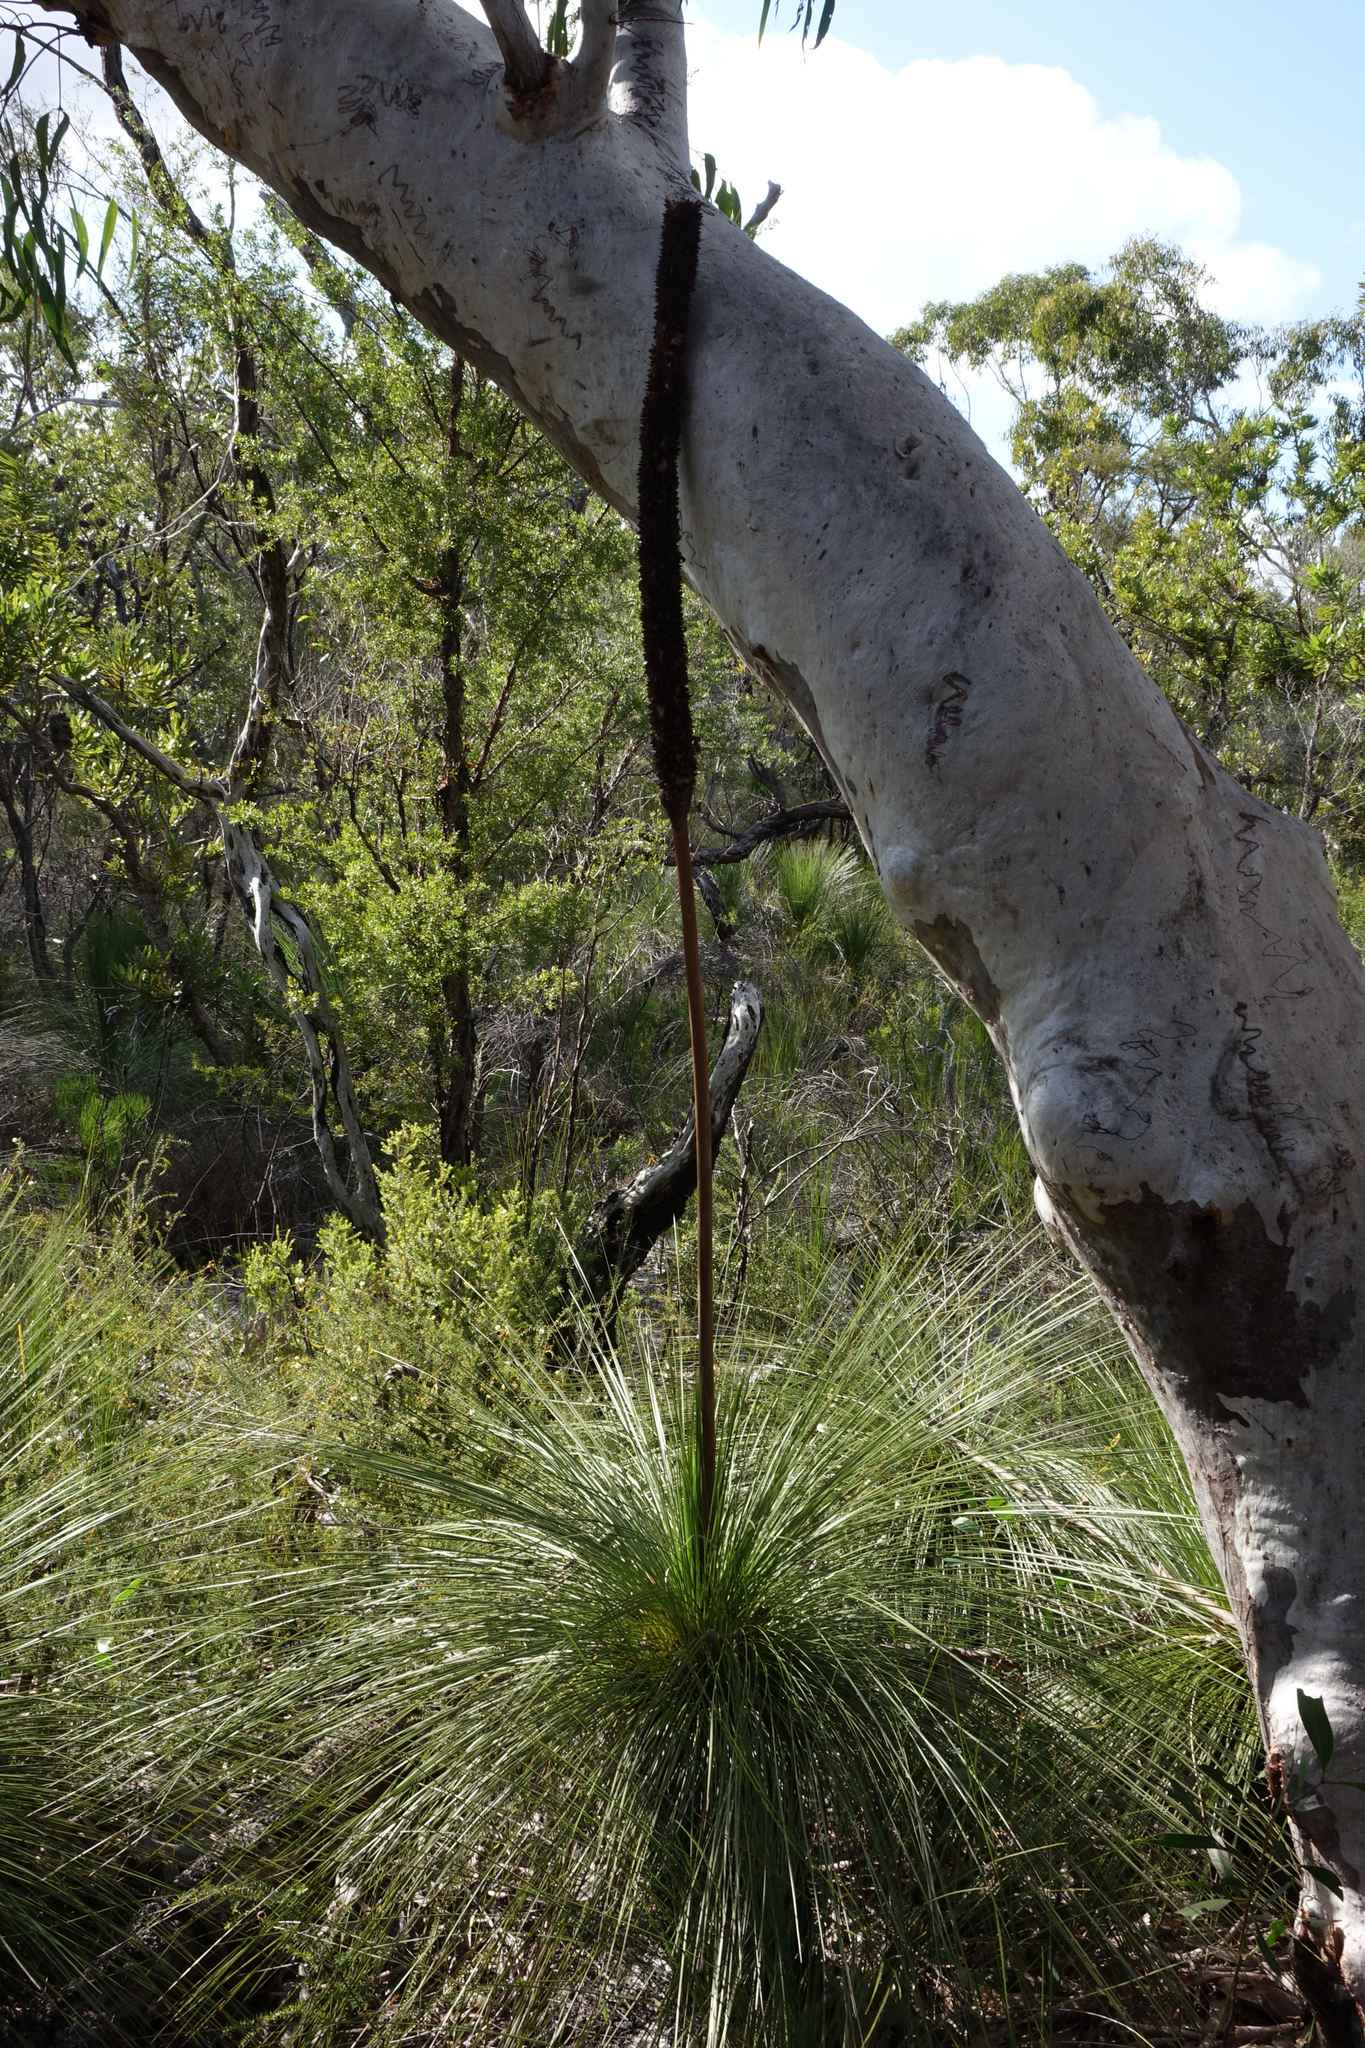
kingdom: Plantae
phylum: Tracheophyta
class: Liliopsida
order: Asparagales
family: Asphodelaceae
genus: Xanthorrhoea
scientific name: Xanthorrhoea johnsonii
